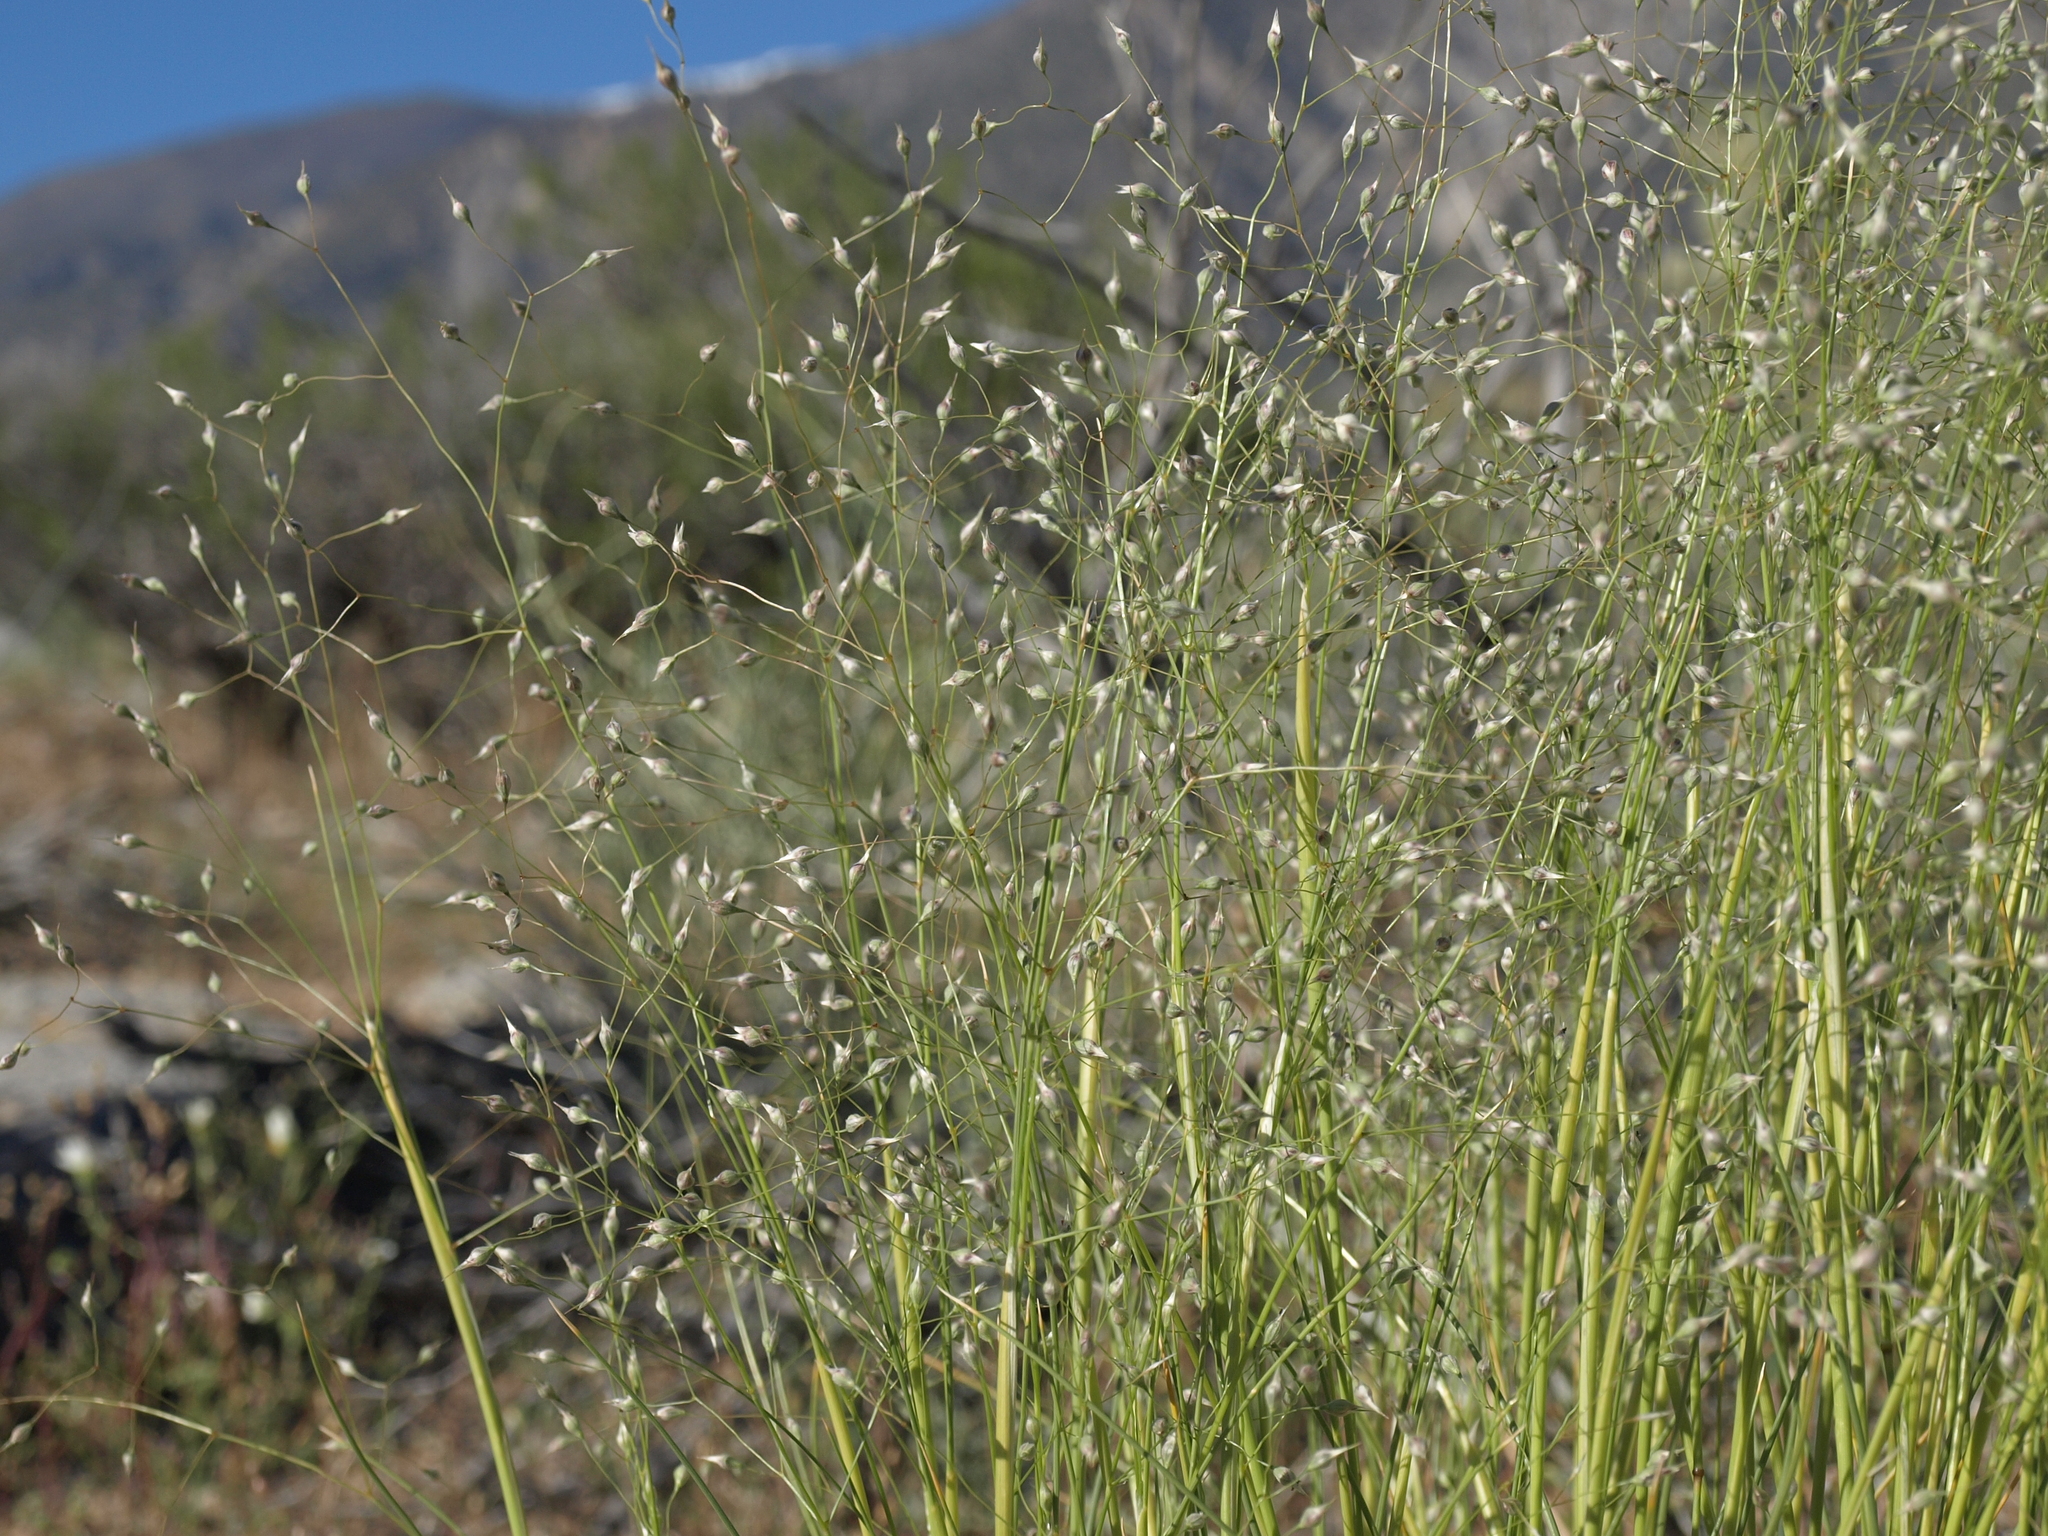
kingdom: Plantae
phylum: Tracheophyta
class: Liliopsida
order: Poales
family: Poaceae
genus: Eriocoma
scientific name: Eriocoma hymenoides
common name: Indian mountain ricegrass
